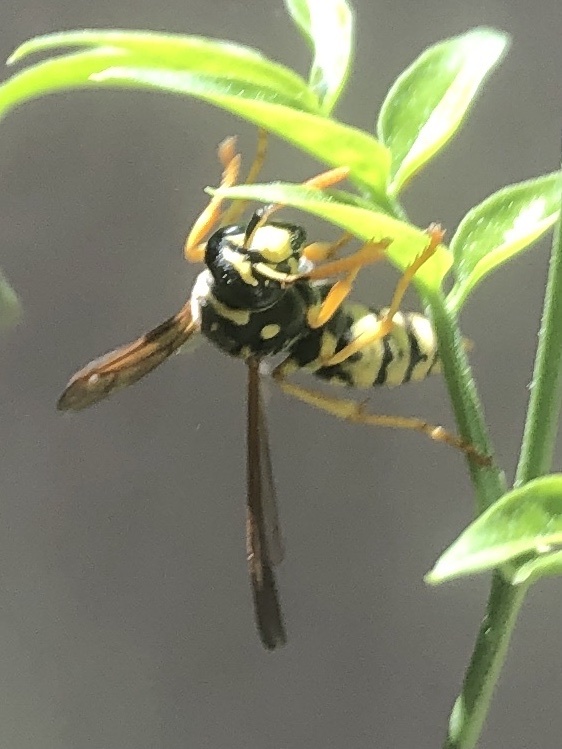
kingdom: Animalia
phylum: Arthropoda
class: Insecta
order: Hymenoptera
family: Eumenidae
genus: Polistes
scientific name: Polistes dominula
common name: Paper wasp
